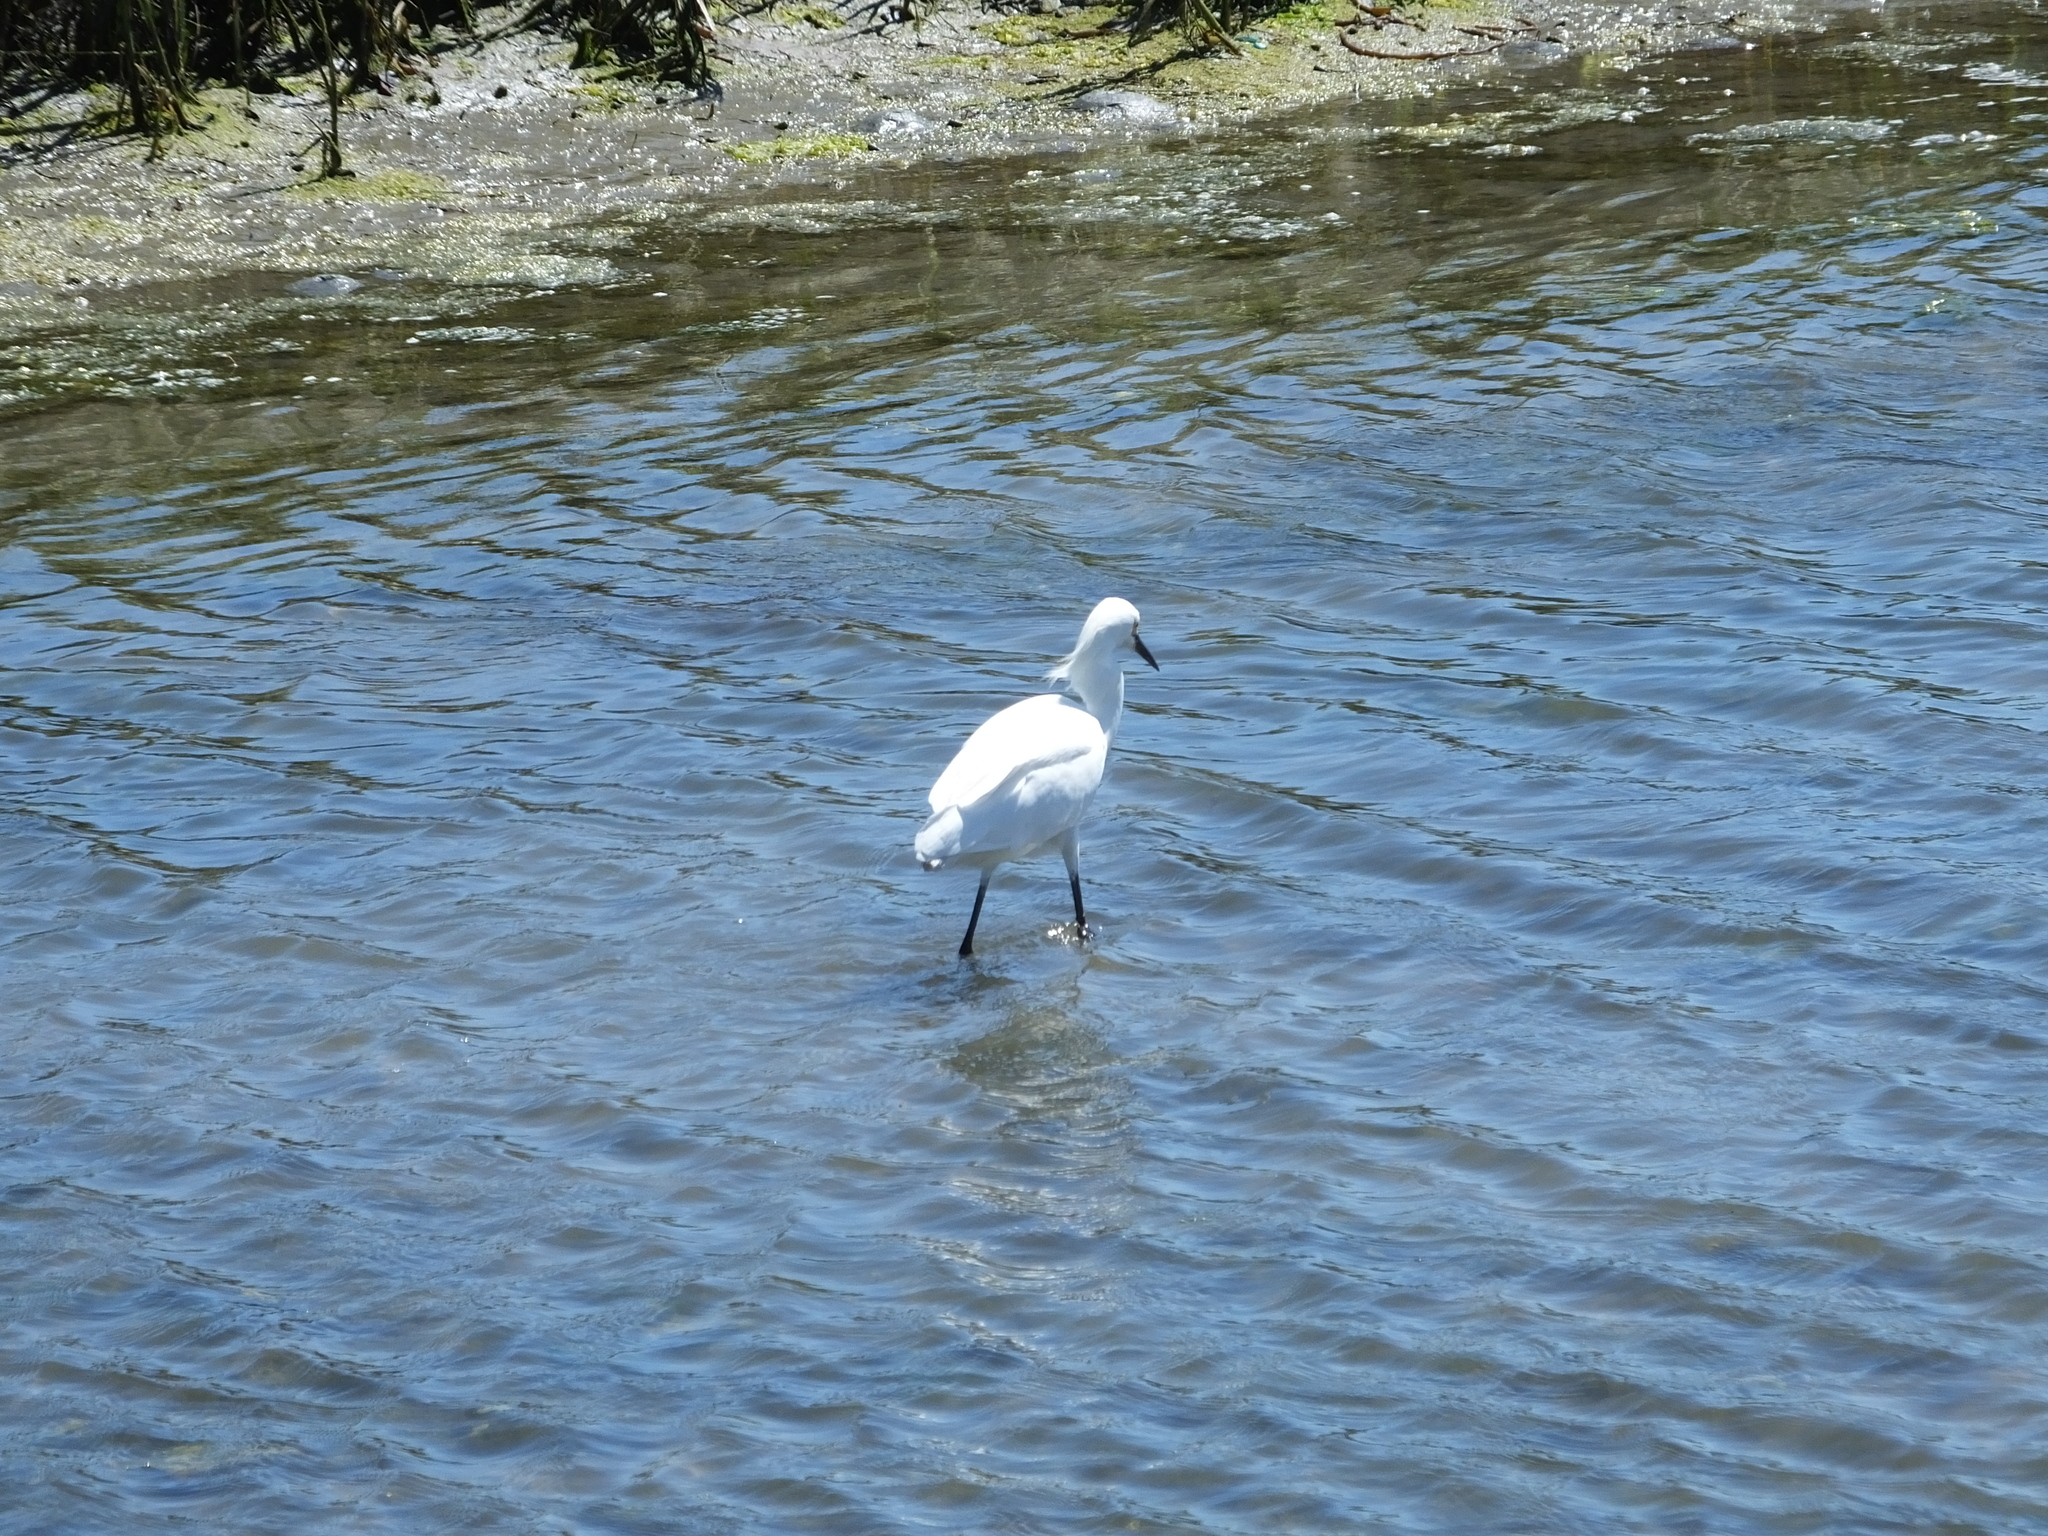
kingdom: Animalia
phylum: Chordata
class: Aves
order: Pelecaniformes
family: Ardeidae
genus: Egretta
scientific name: Egretta thula
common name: Snowy egret
